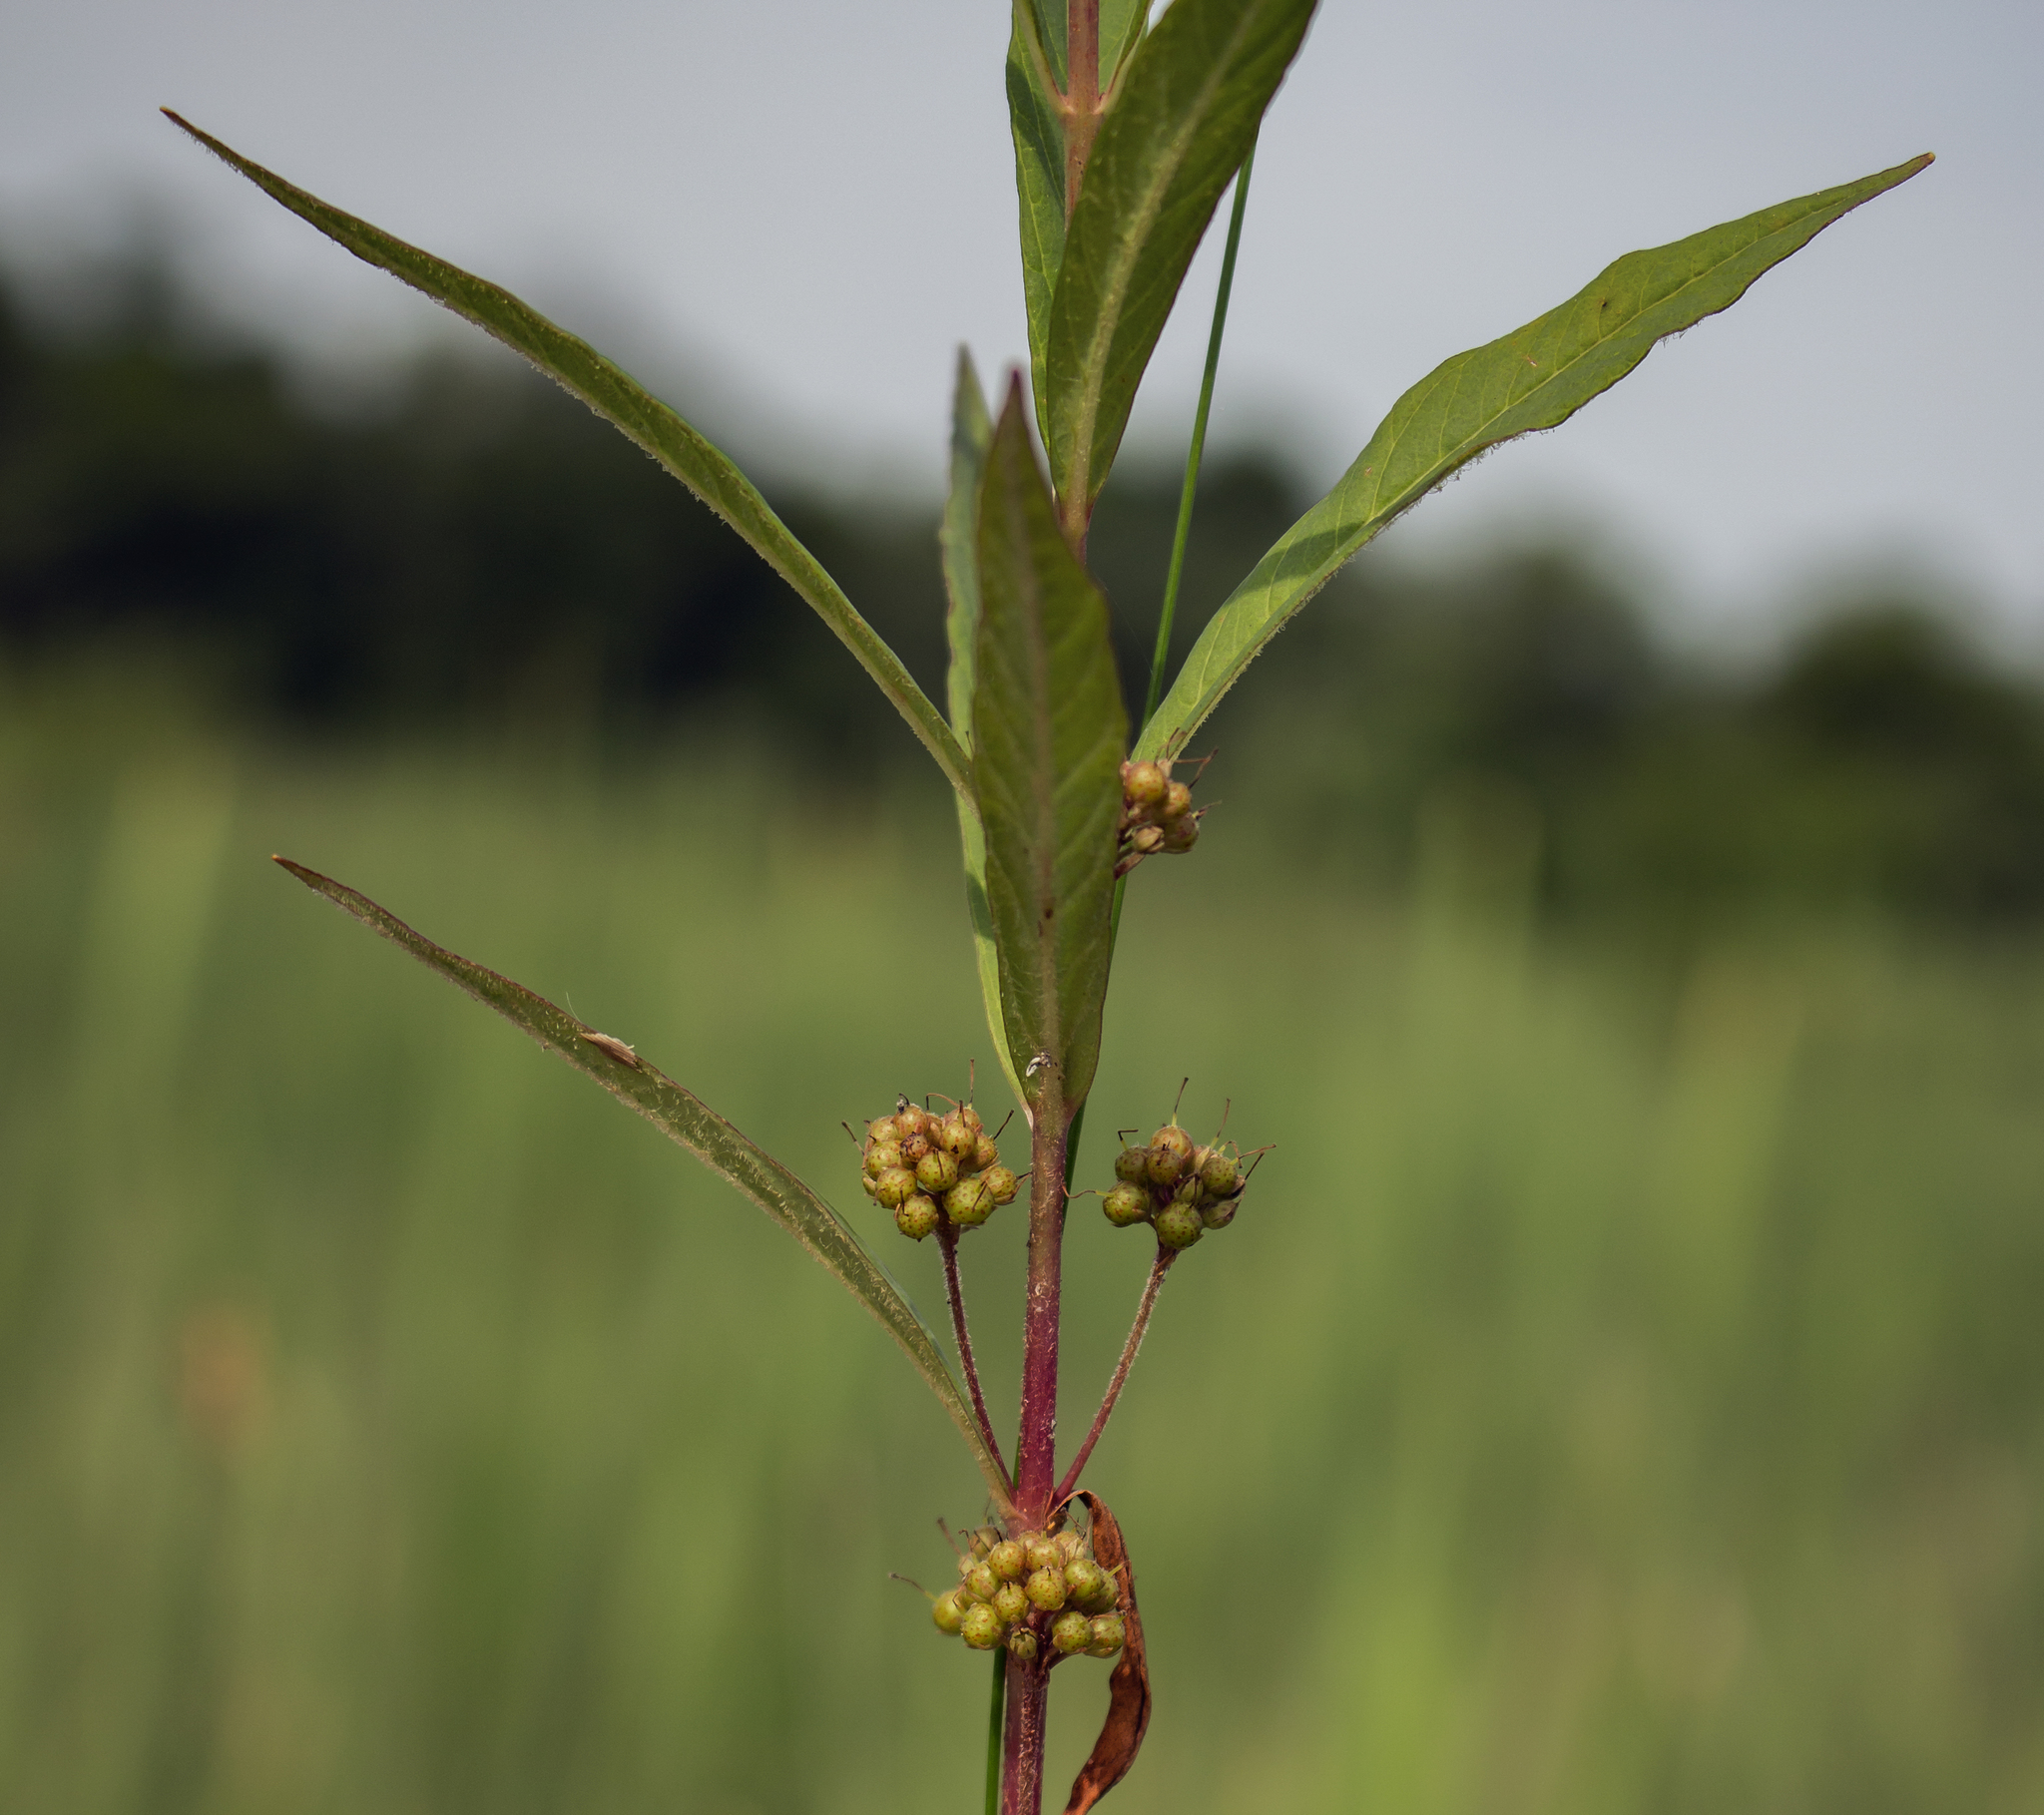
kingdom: Plantae
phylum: Tracheophyta
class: Magnoliopsida
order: Ericales
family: Primulaceae
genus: Lysimachia
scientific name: Lysimachia thyrsiflora
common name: Tufted loosestrife
